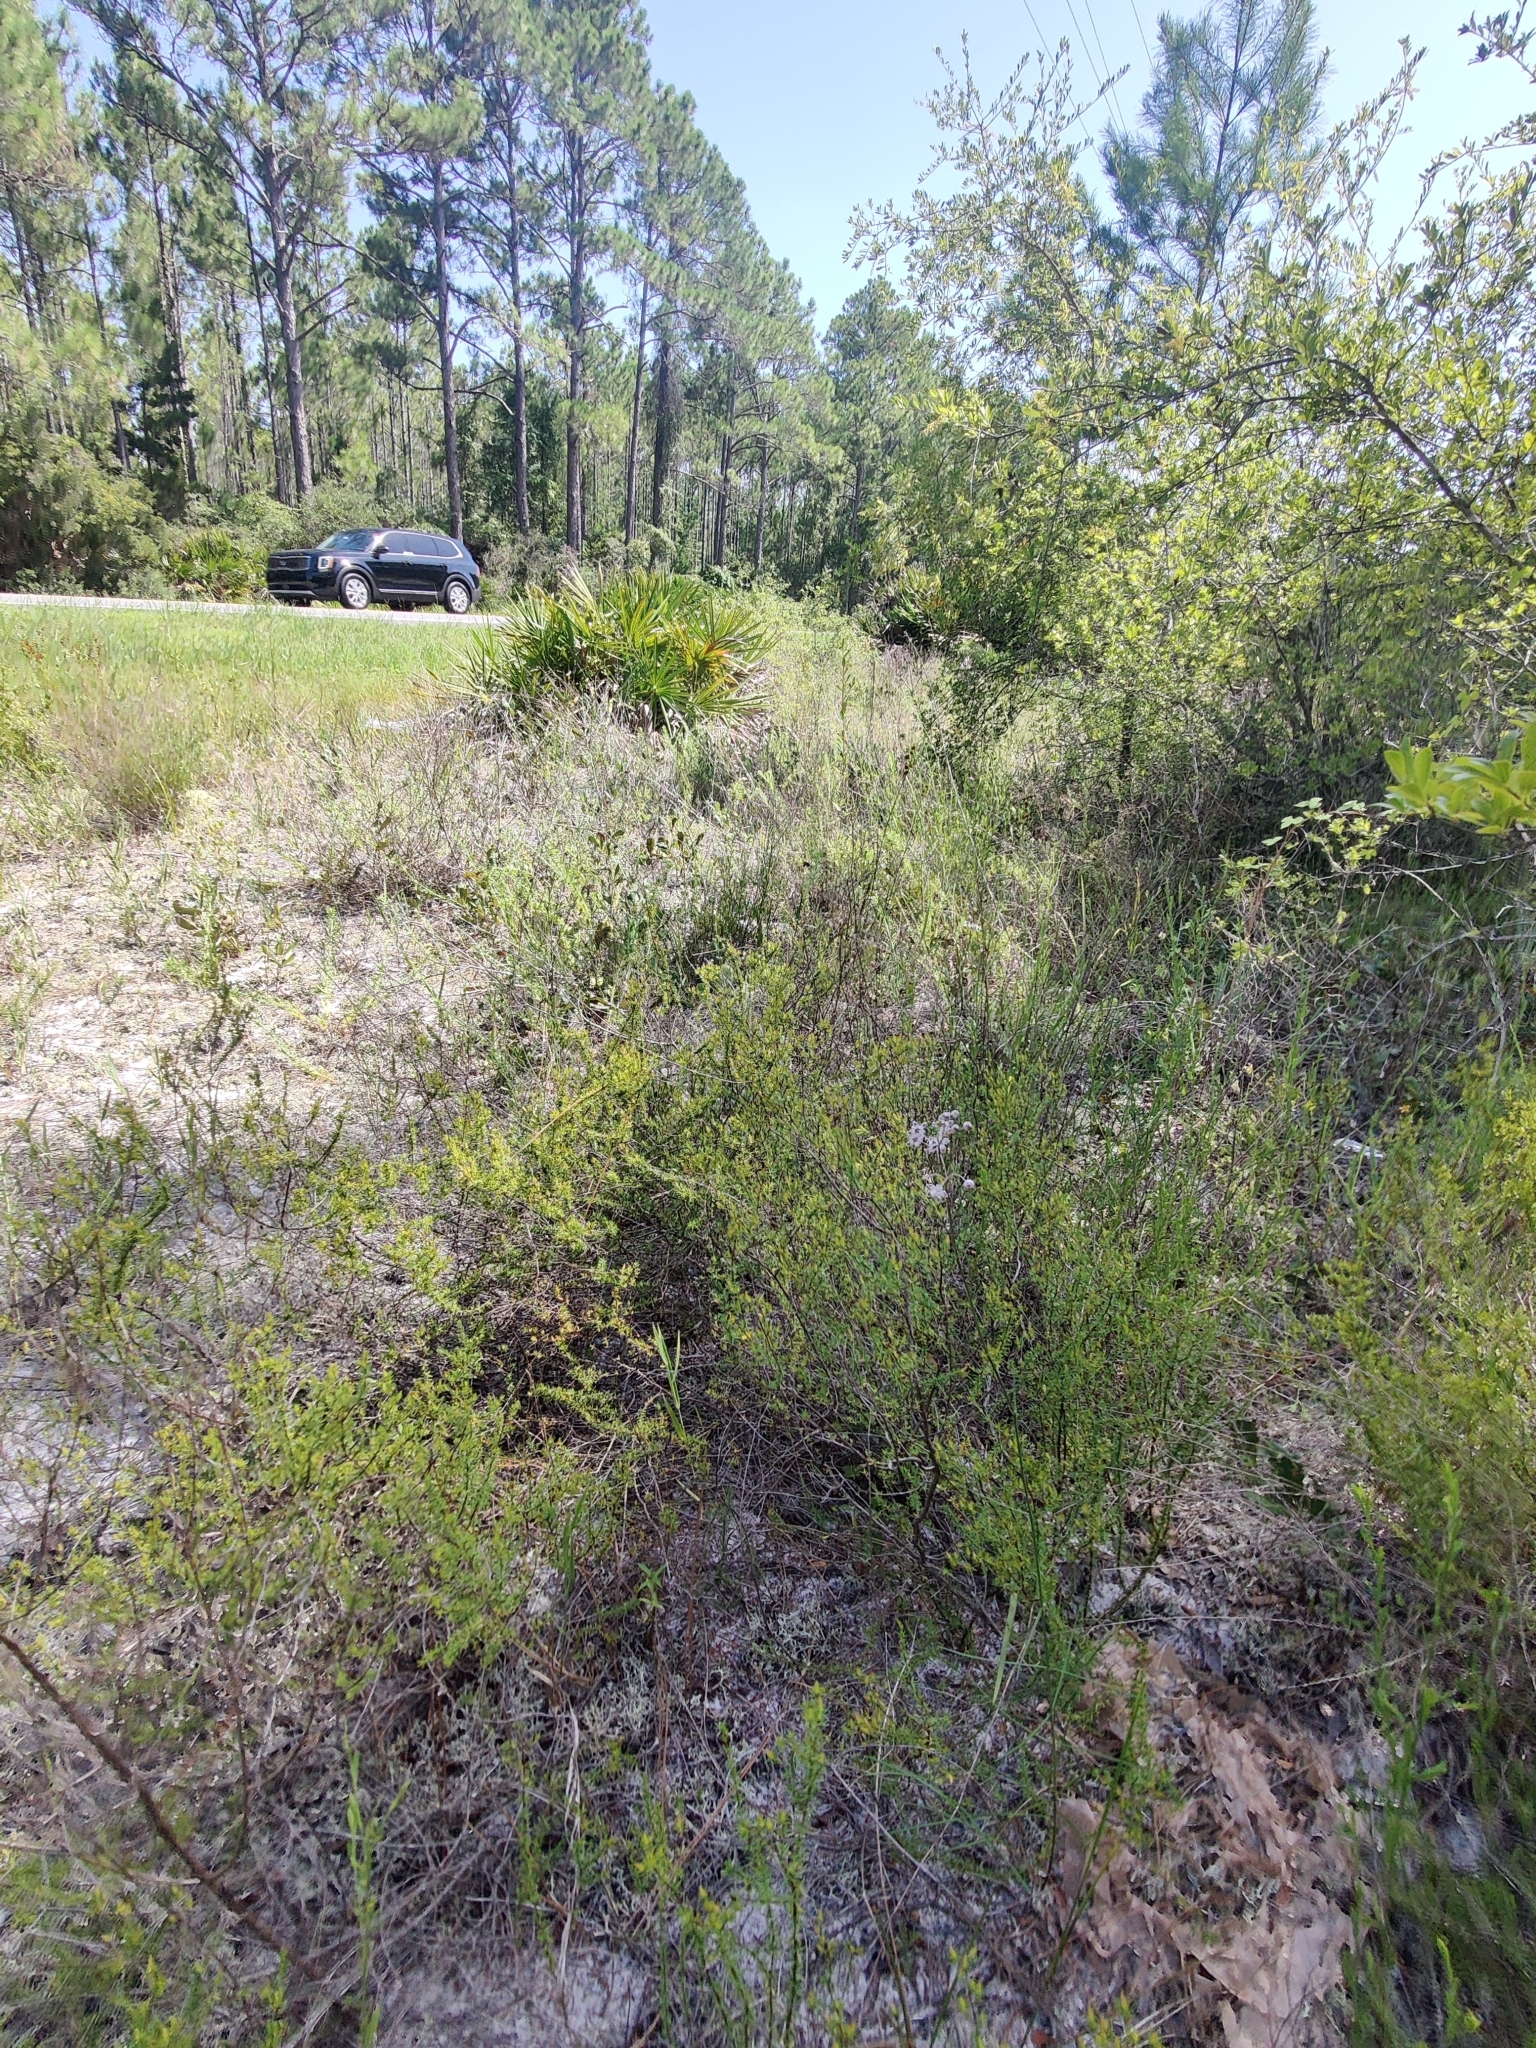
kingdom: Plantae
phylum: Tracheophyta
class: Magnoliopsida
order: Gentianales
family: Apocynaceae
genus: Asclepias
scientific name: Asclepias cinerea
